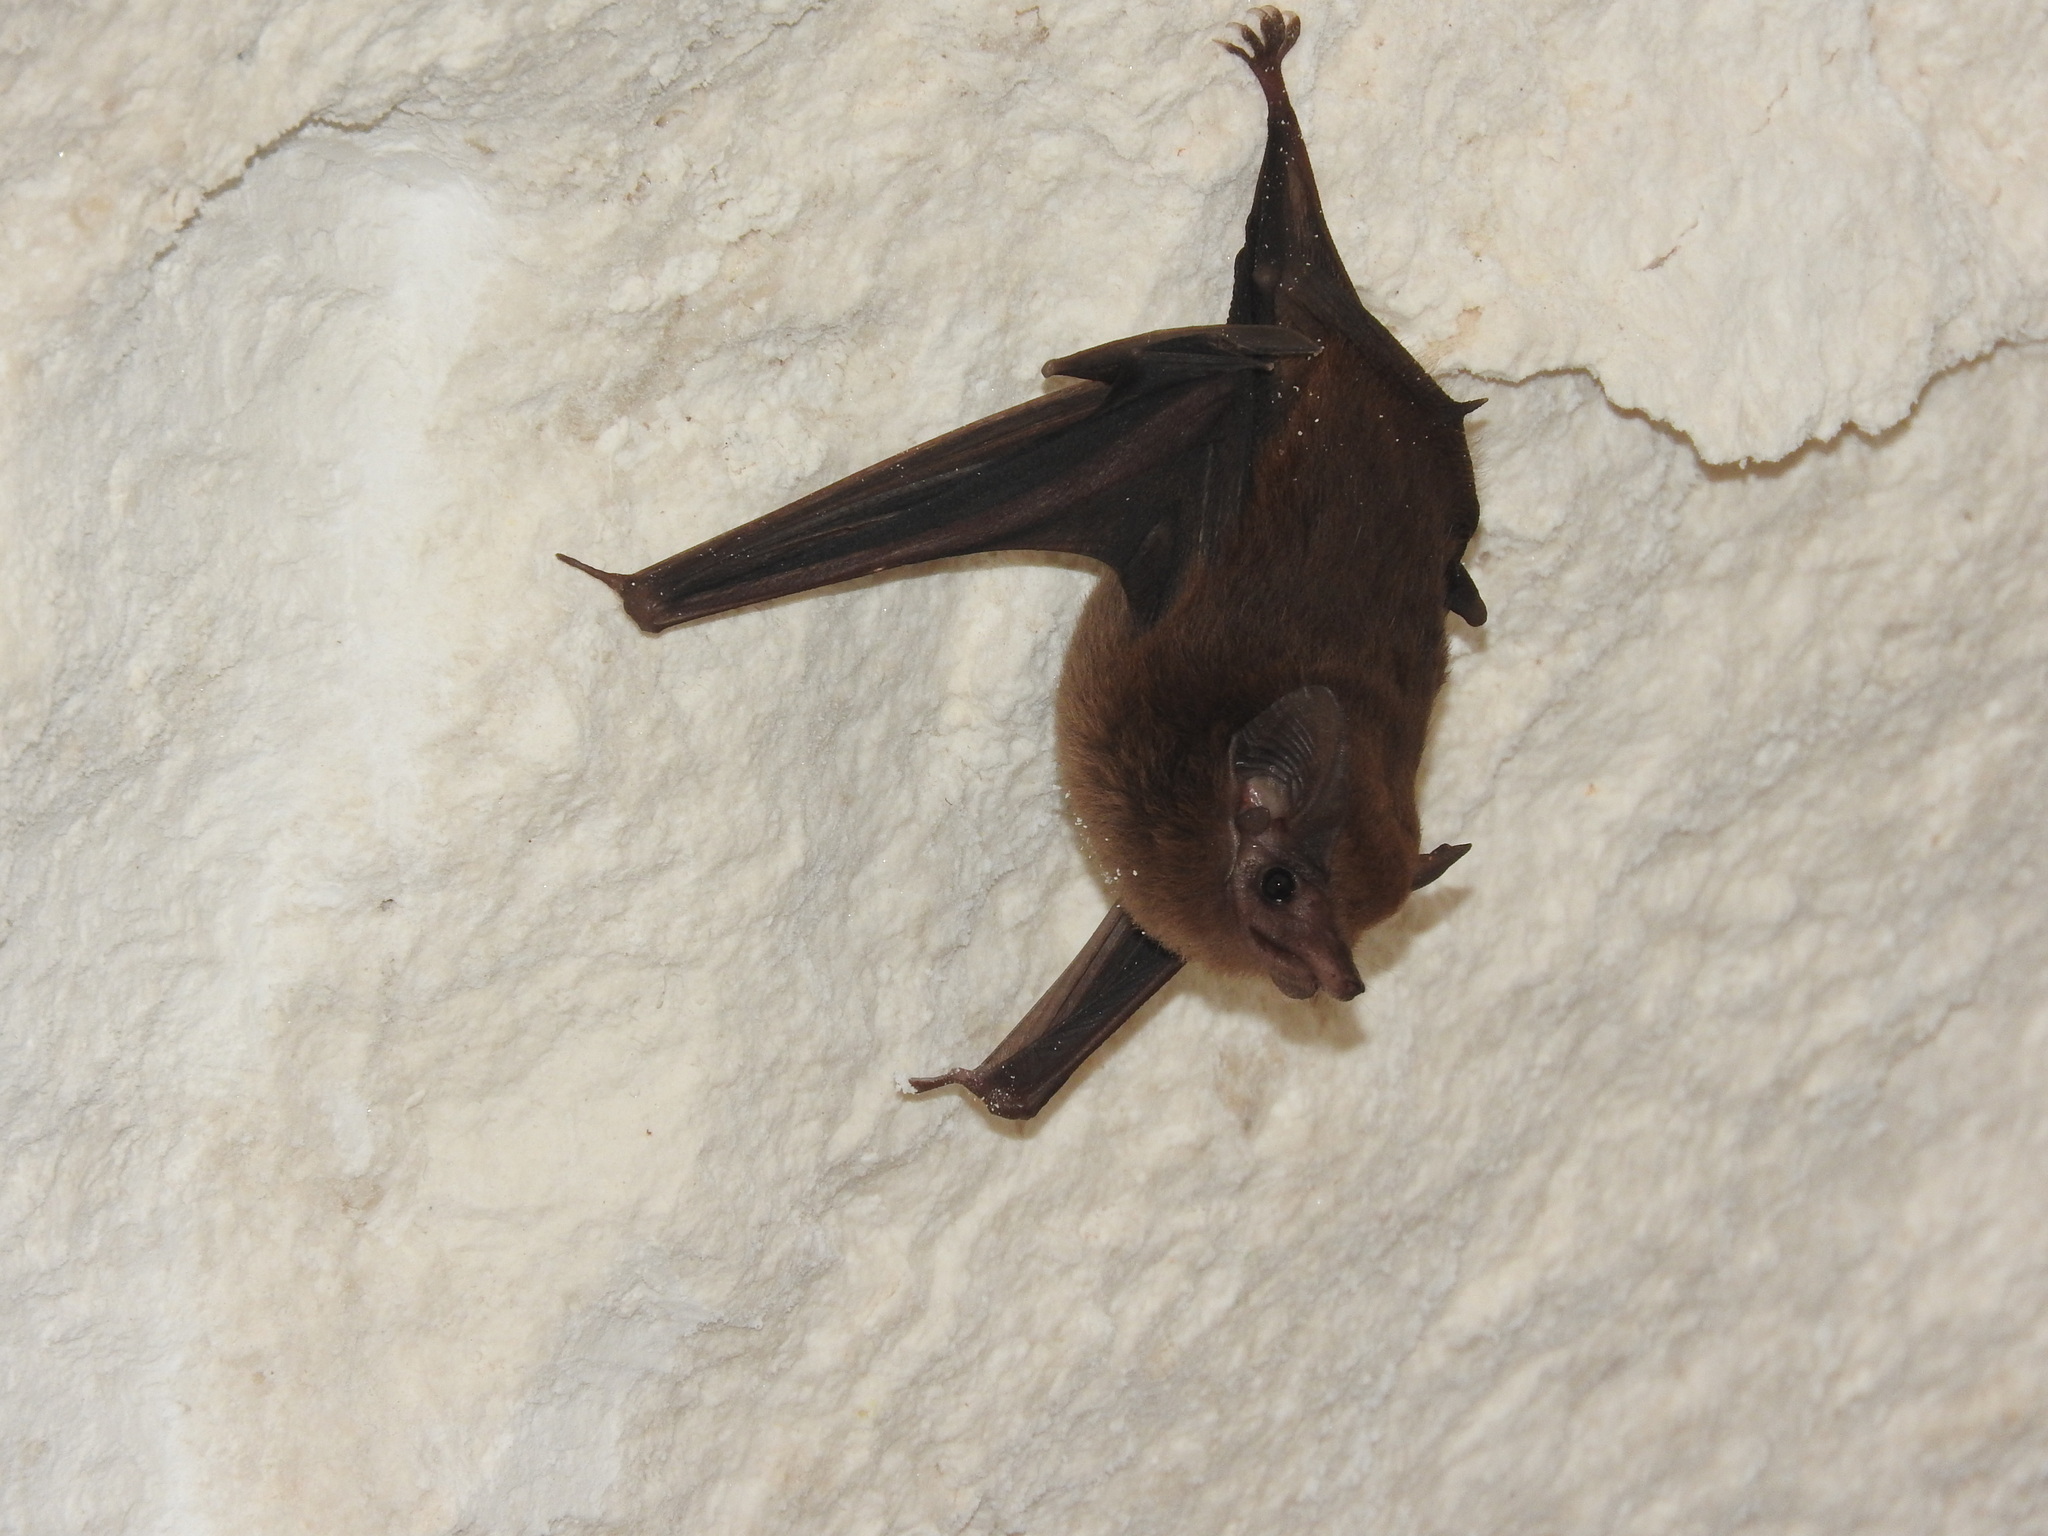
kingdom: Animalia
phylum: Chordata
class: Mammalia
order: Chiroptera
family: Emballonuridae
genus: Peropteryx
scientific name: Peropteryx macrotis
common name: Lesser dog-like bat
